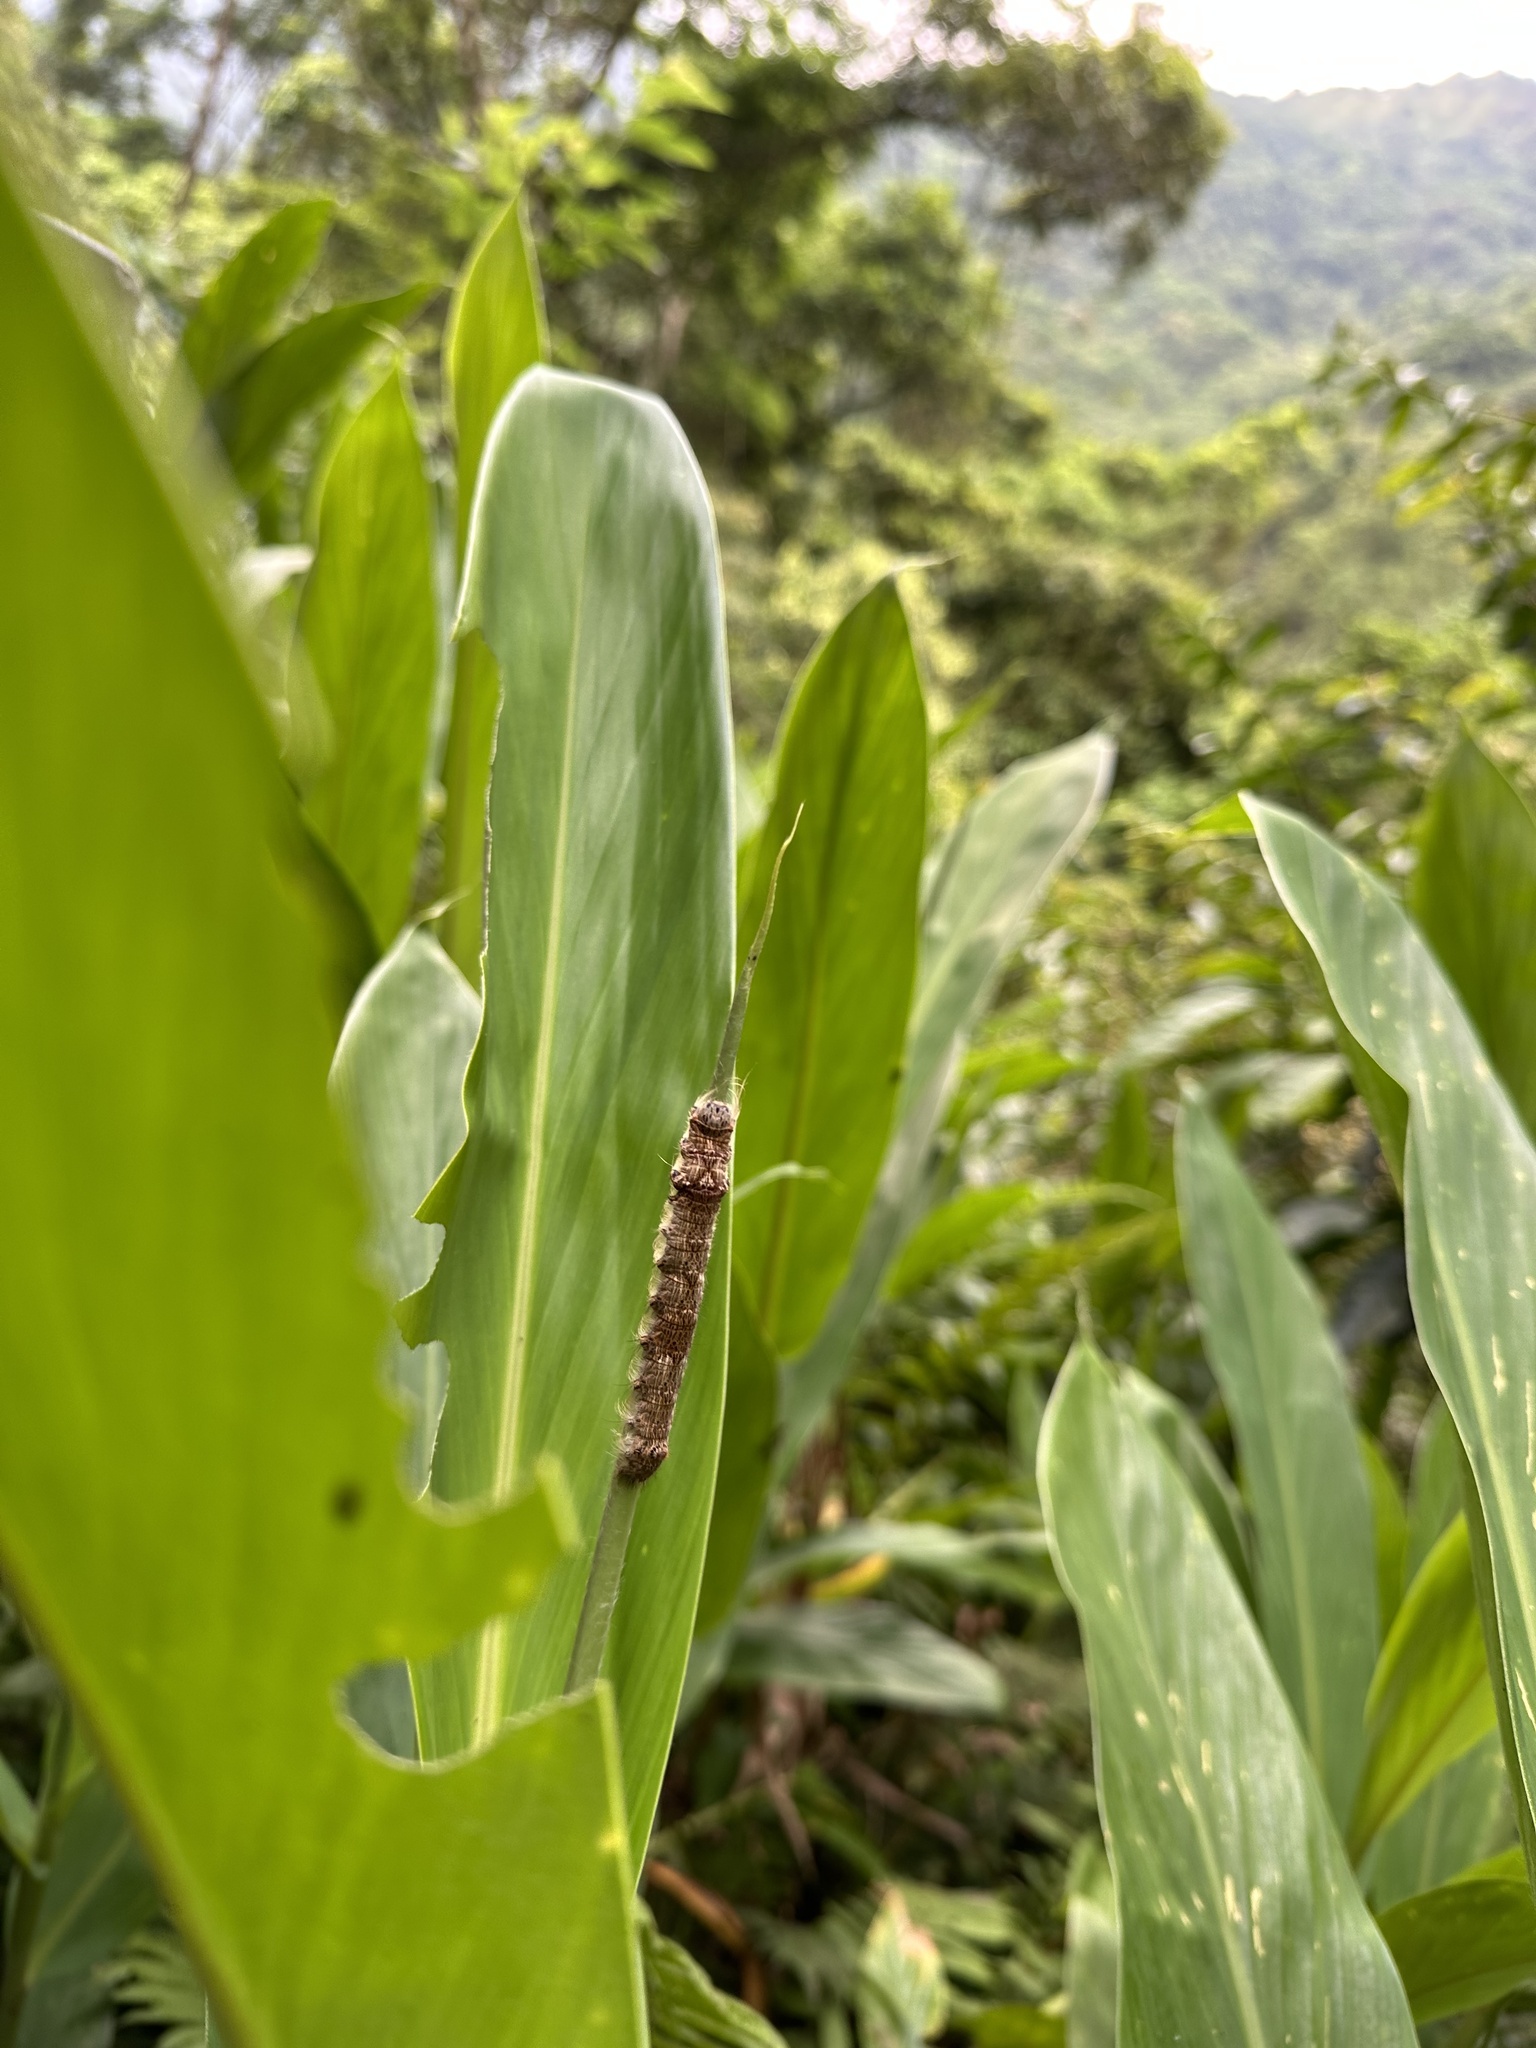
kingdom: Animalia
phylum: Arthropoda
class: Insecta
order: Lepidoptera
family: Lasiocampidae
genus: Lebeda
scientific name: Lebeda nobilis
